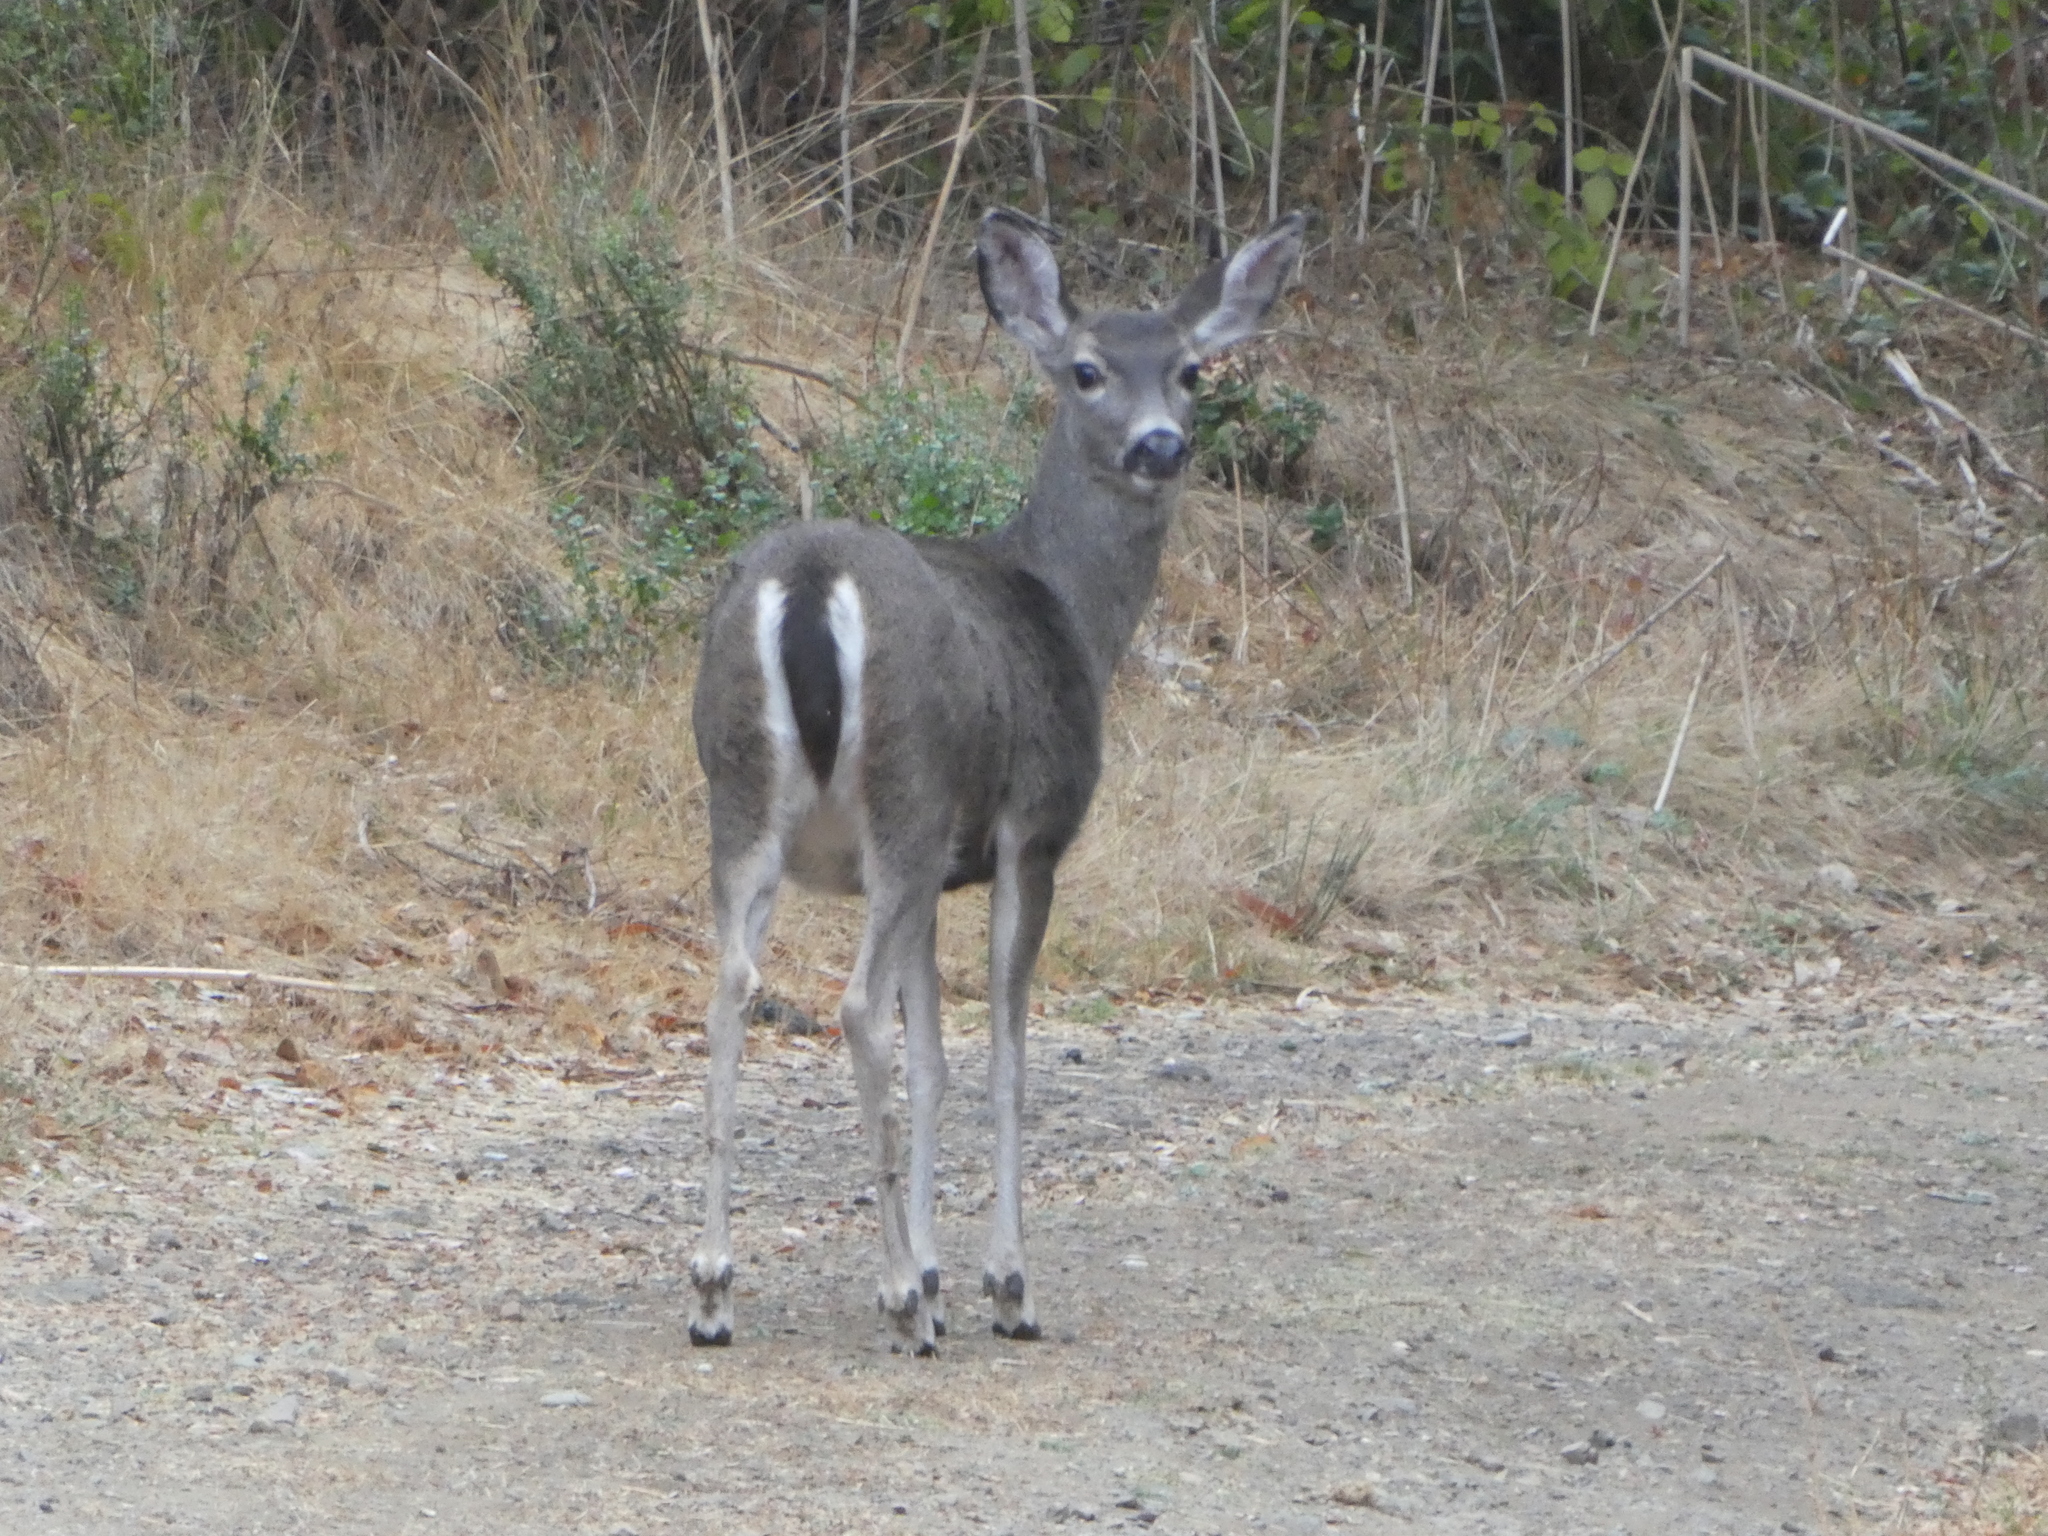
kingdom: Animalia
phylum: Chordata
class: Mammalia
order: Artiodactyla
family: Cervidae
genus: Odocoileus
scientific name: Odocoileus hemionus
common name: Mule deer
